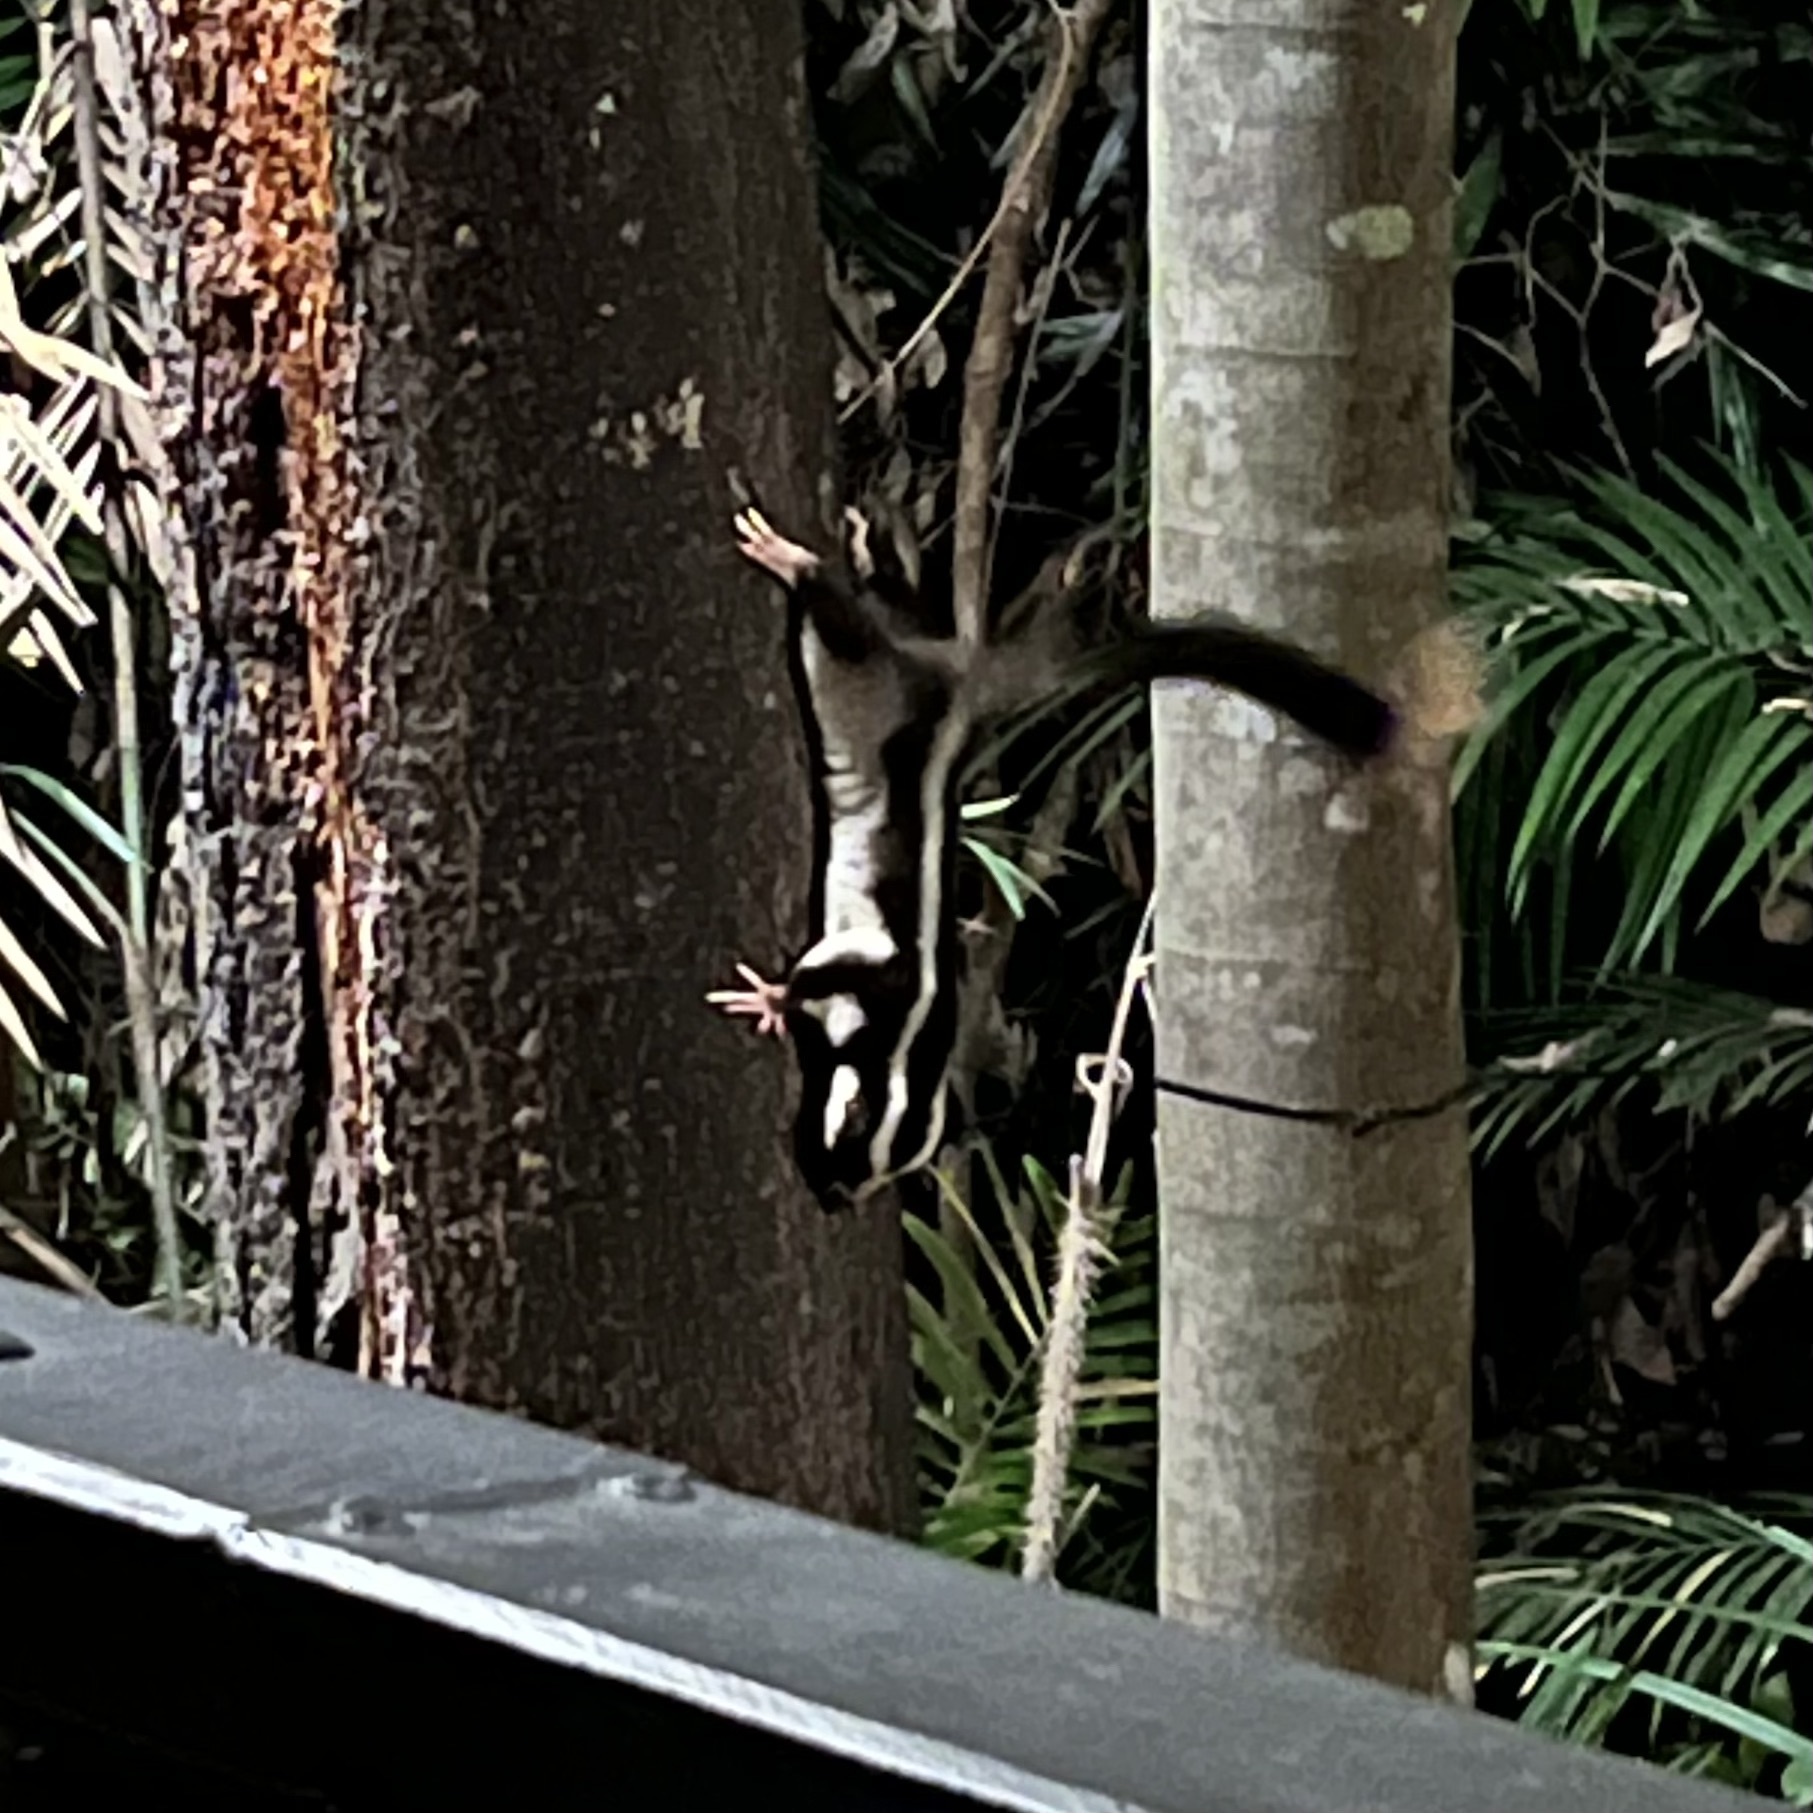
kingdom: Animalia
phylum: Chordata
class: Mammalia
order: Diprotodontia
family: Petauridae
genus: Dactylopsila
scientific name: Dactylopsila trivirgata
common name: Striped possum
